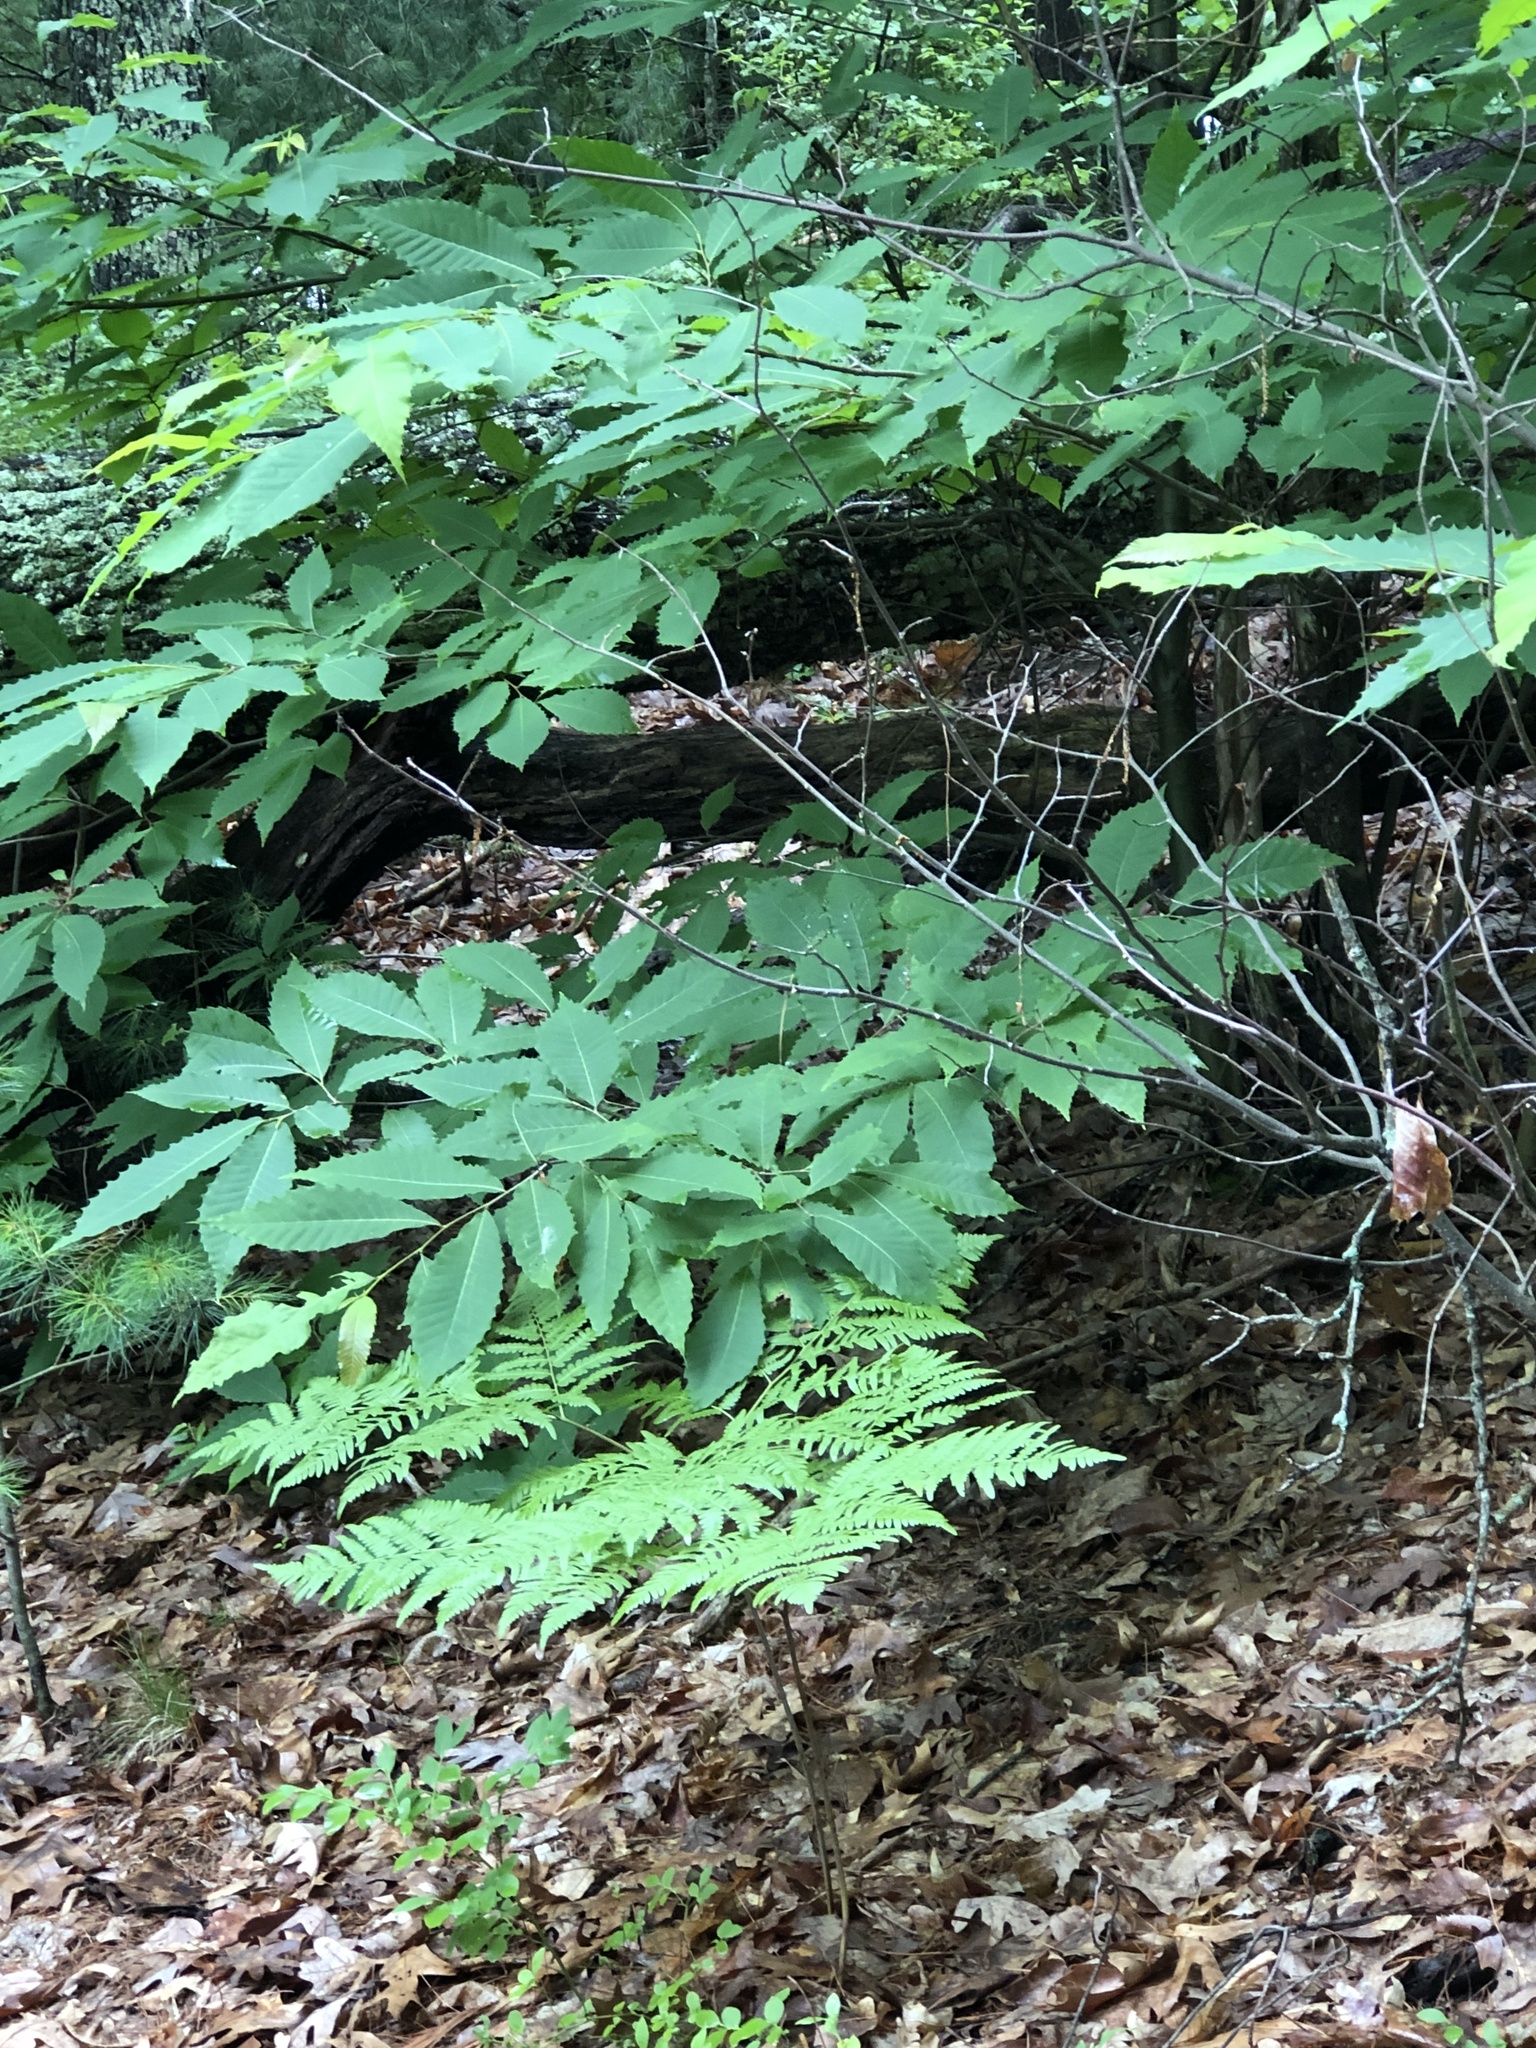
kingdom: Plantae
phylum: Tracheophyta
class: Magnoliopsida
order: Fagales
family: Fagaceae
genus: Castanea
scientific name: Castanea dentata
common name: American chestnut
